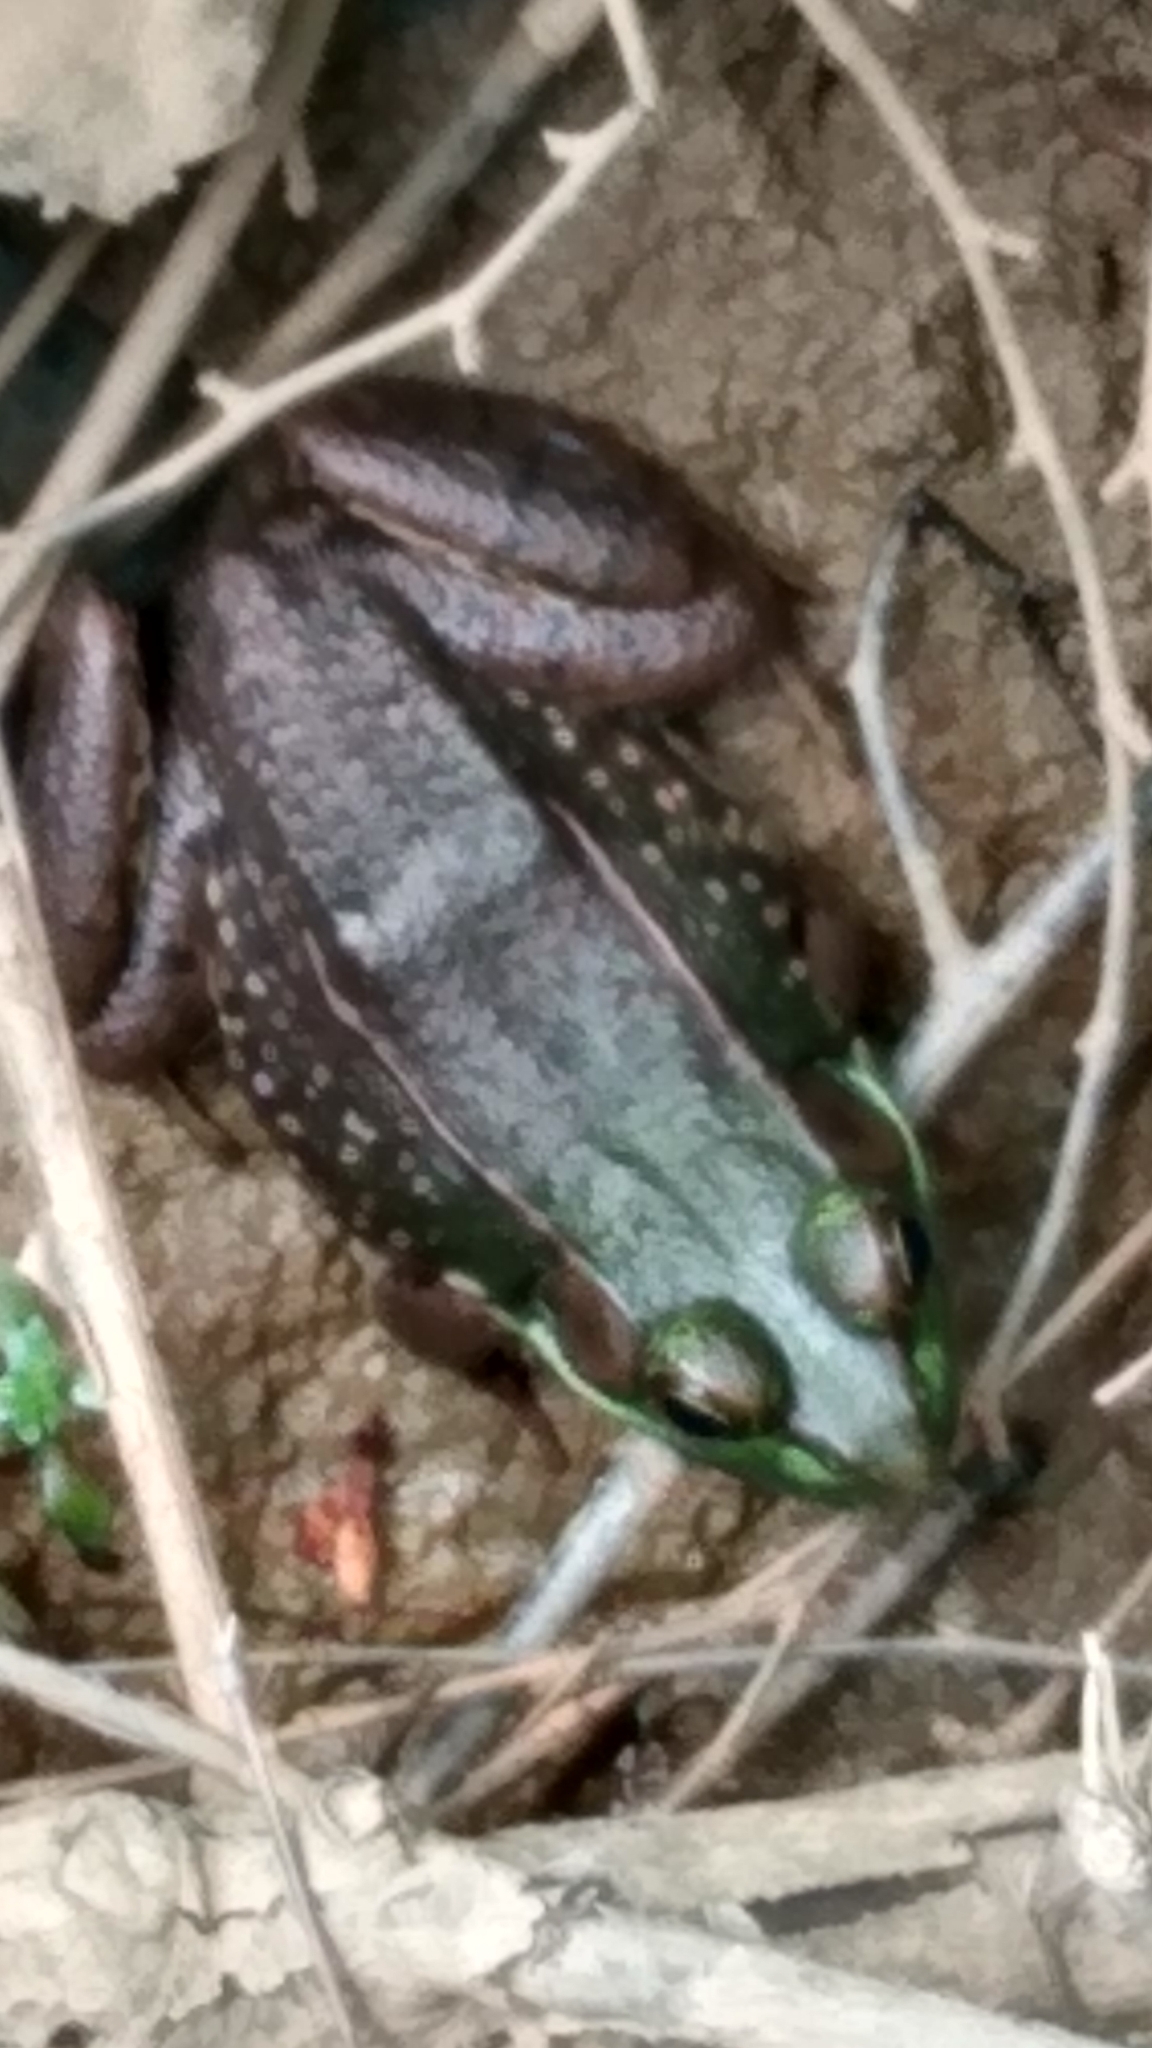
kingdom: Animalia
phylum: Chordata
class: Amphibia
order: Anura
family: Ranidae
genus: Lithobates
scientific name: Lithobates clamitans
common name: Green frog
